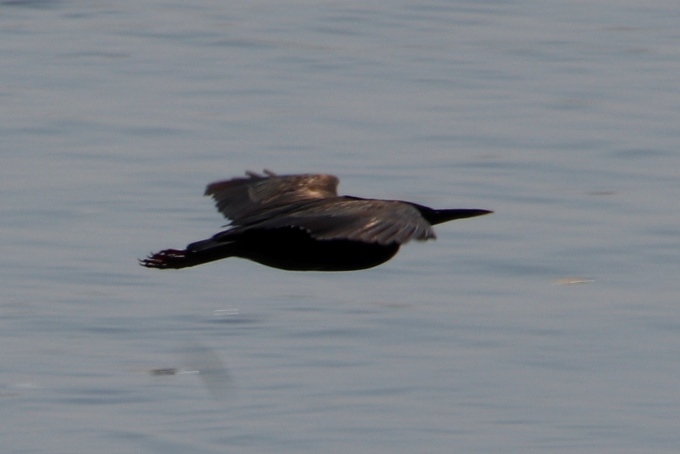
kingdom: Animalia
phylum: Chordata
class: Aves
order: Pelecaniformes
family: Ardeidae
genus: Ardeola
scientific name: Ardeola ralloides
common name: Squacco heron
